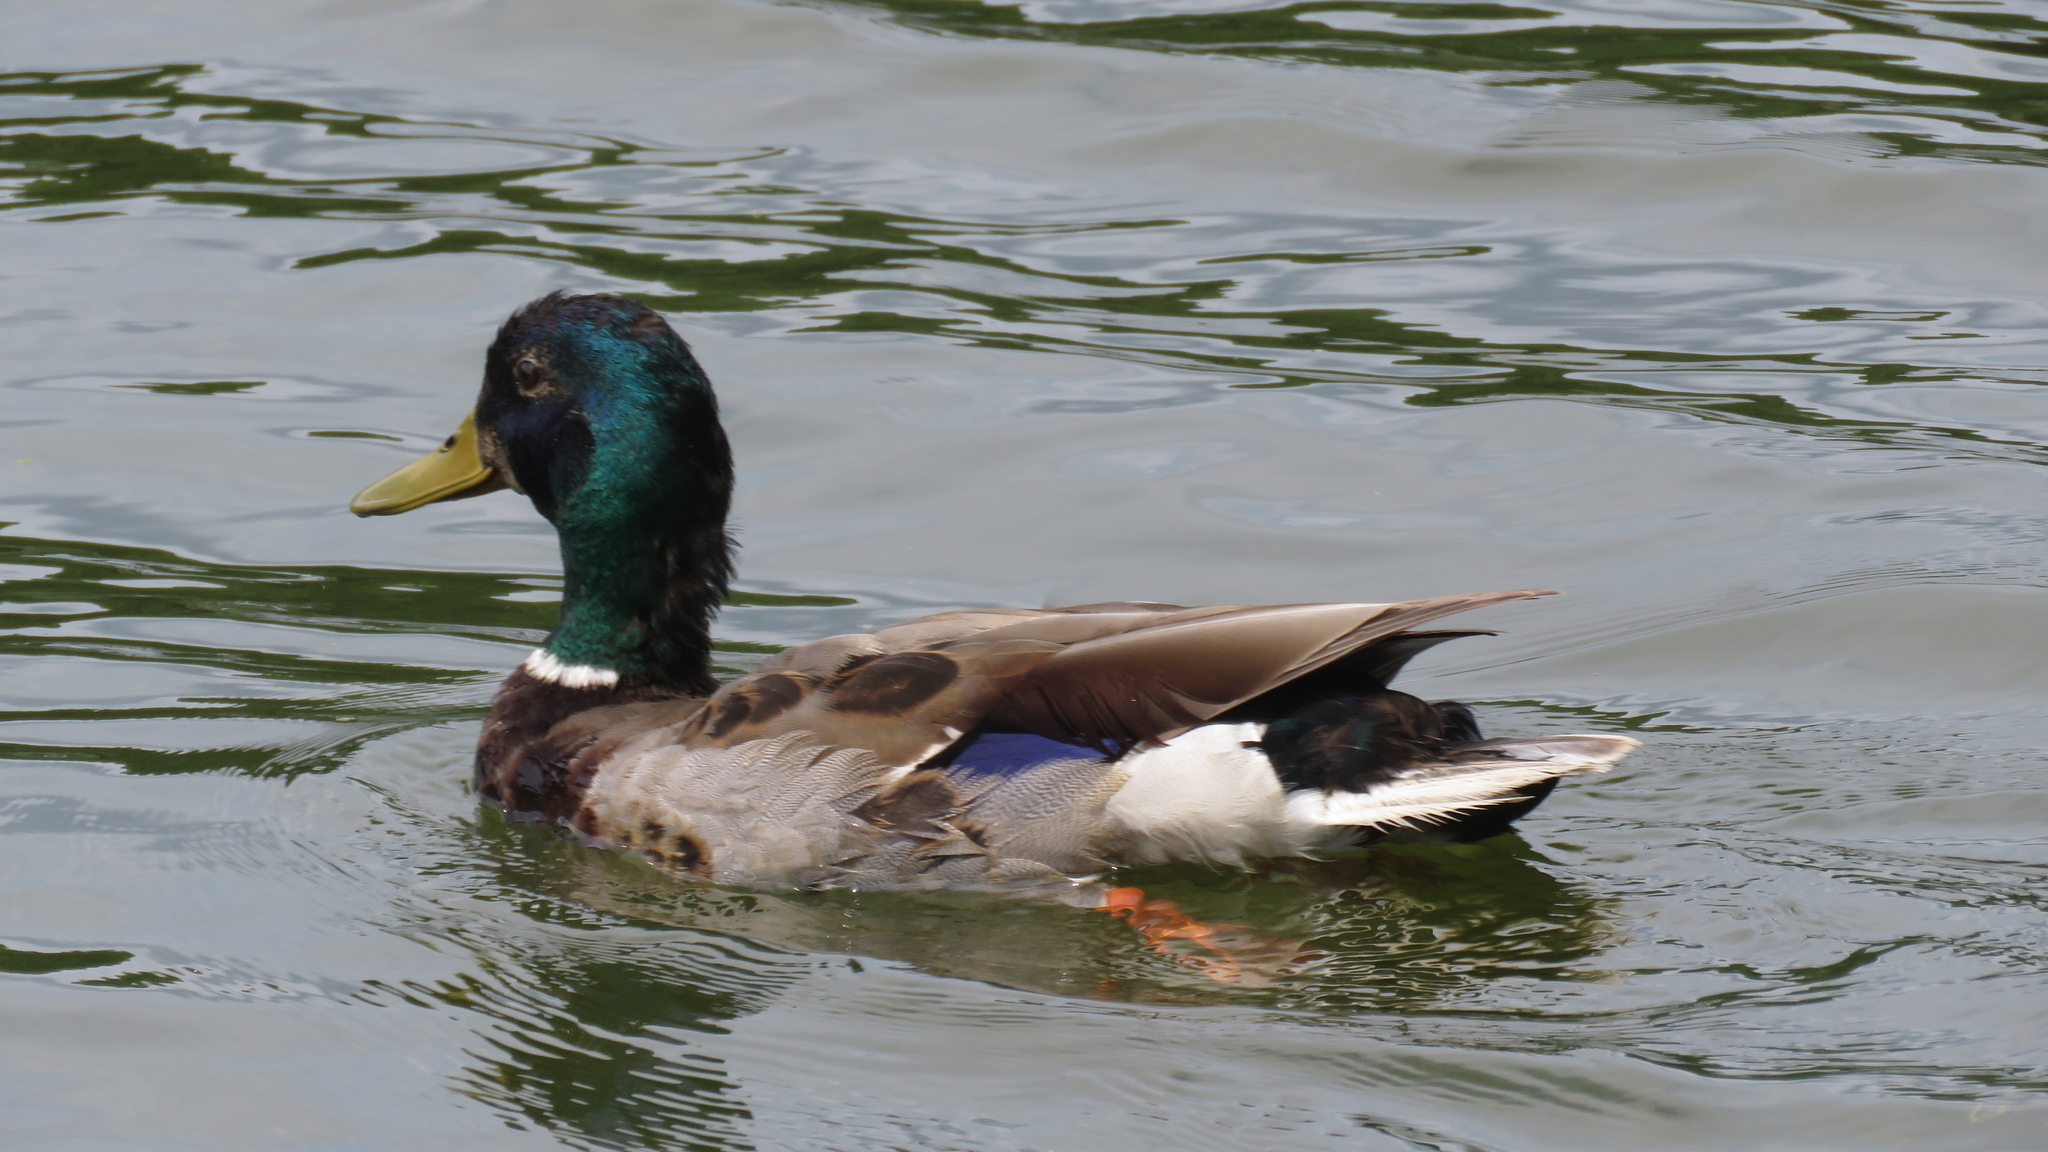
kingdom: Animalia
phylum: Chordata
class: Aves
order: Anseriformes
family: Anatidae
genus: Anas
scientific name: Anas platyrhynchos
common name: Mallard
